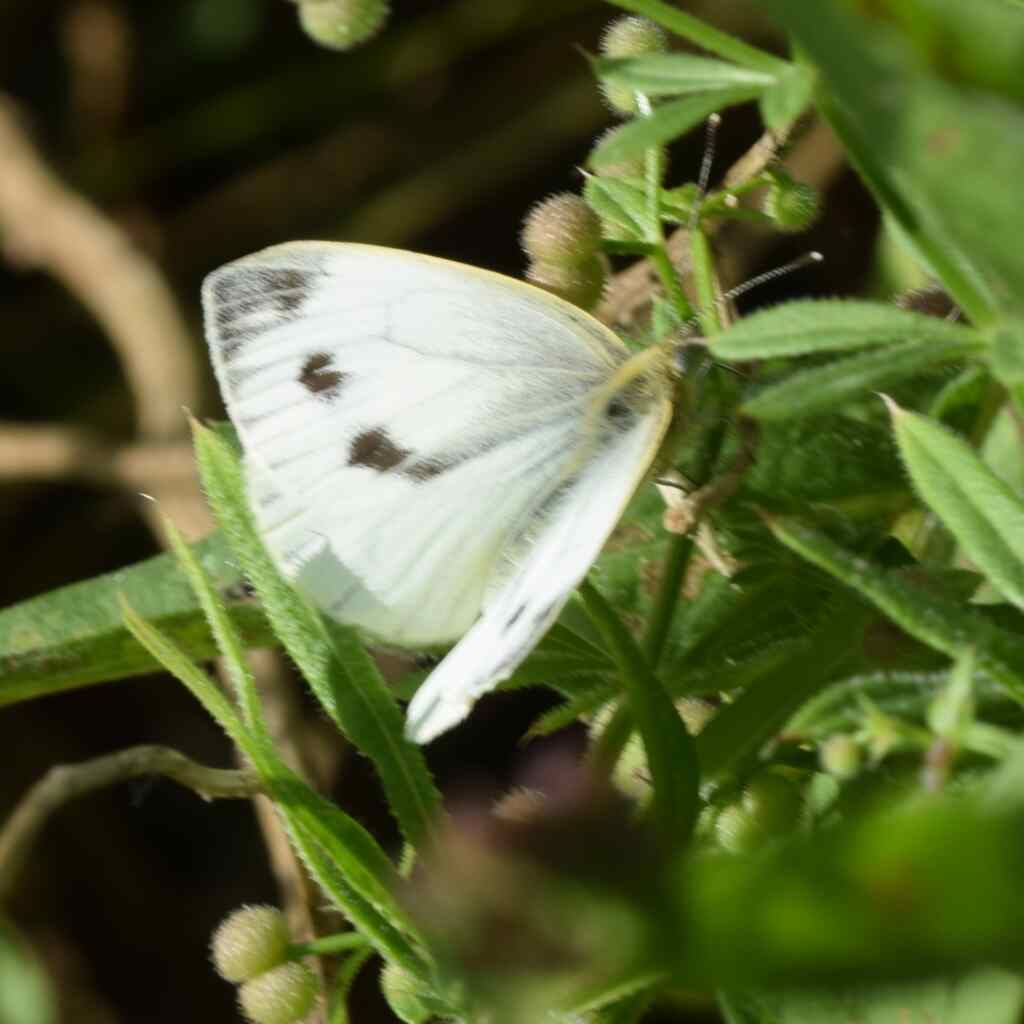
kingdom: Animalia
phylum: Arthropoda
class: Insecta
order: Lepidoptera
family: Pieridae
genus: Pieris
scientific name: Pieris napi
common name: Green-veined white
